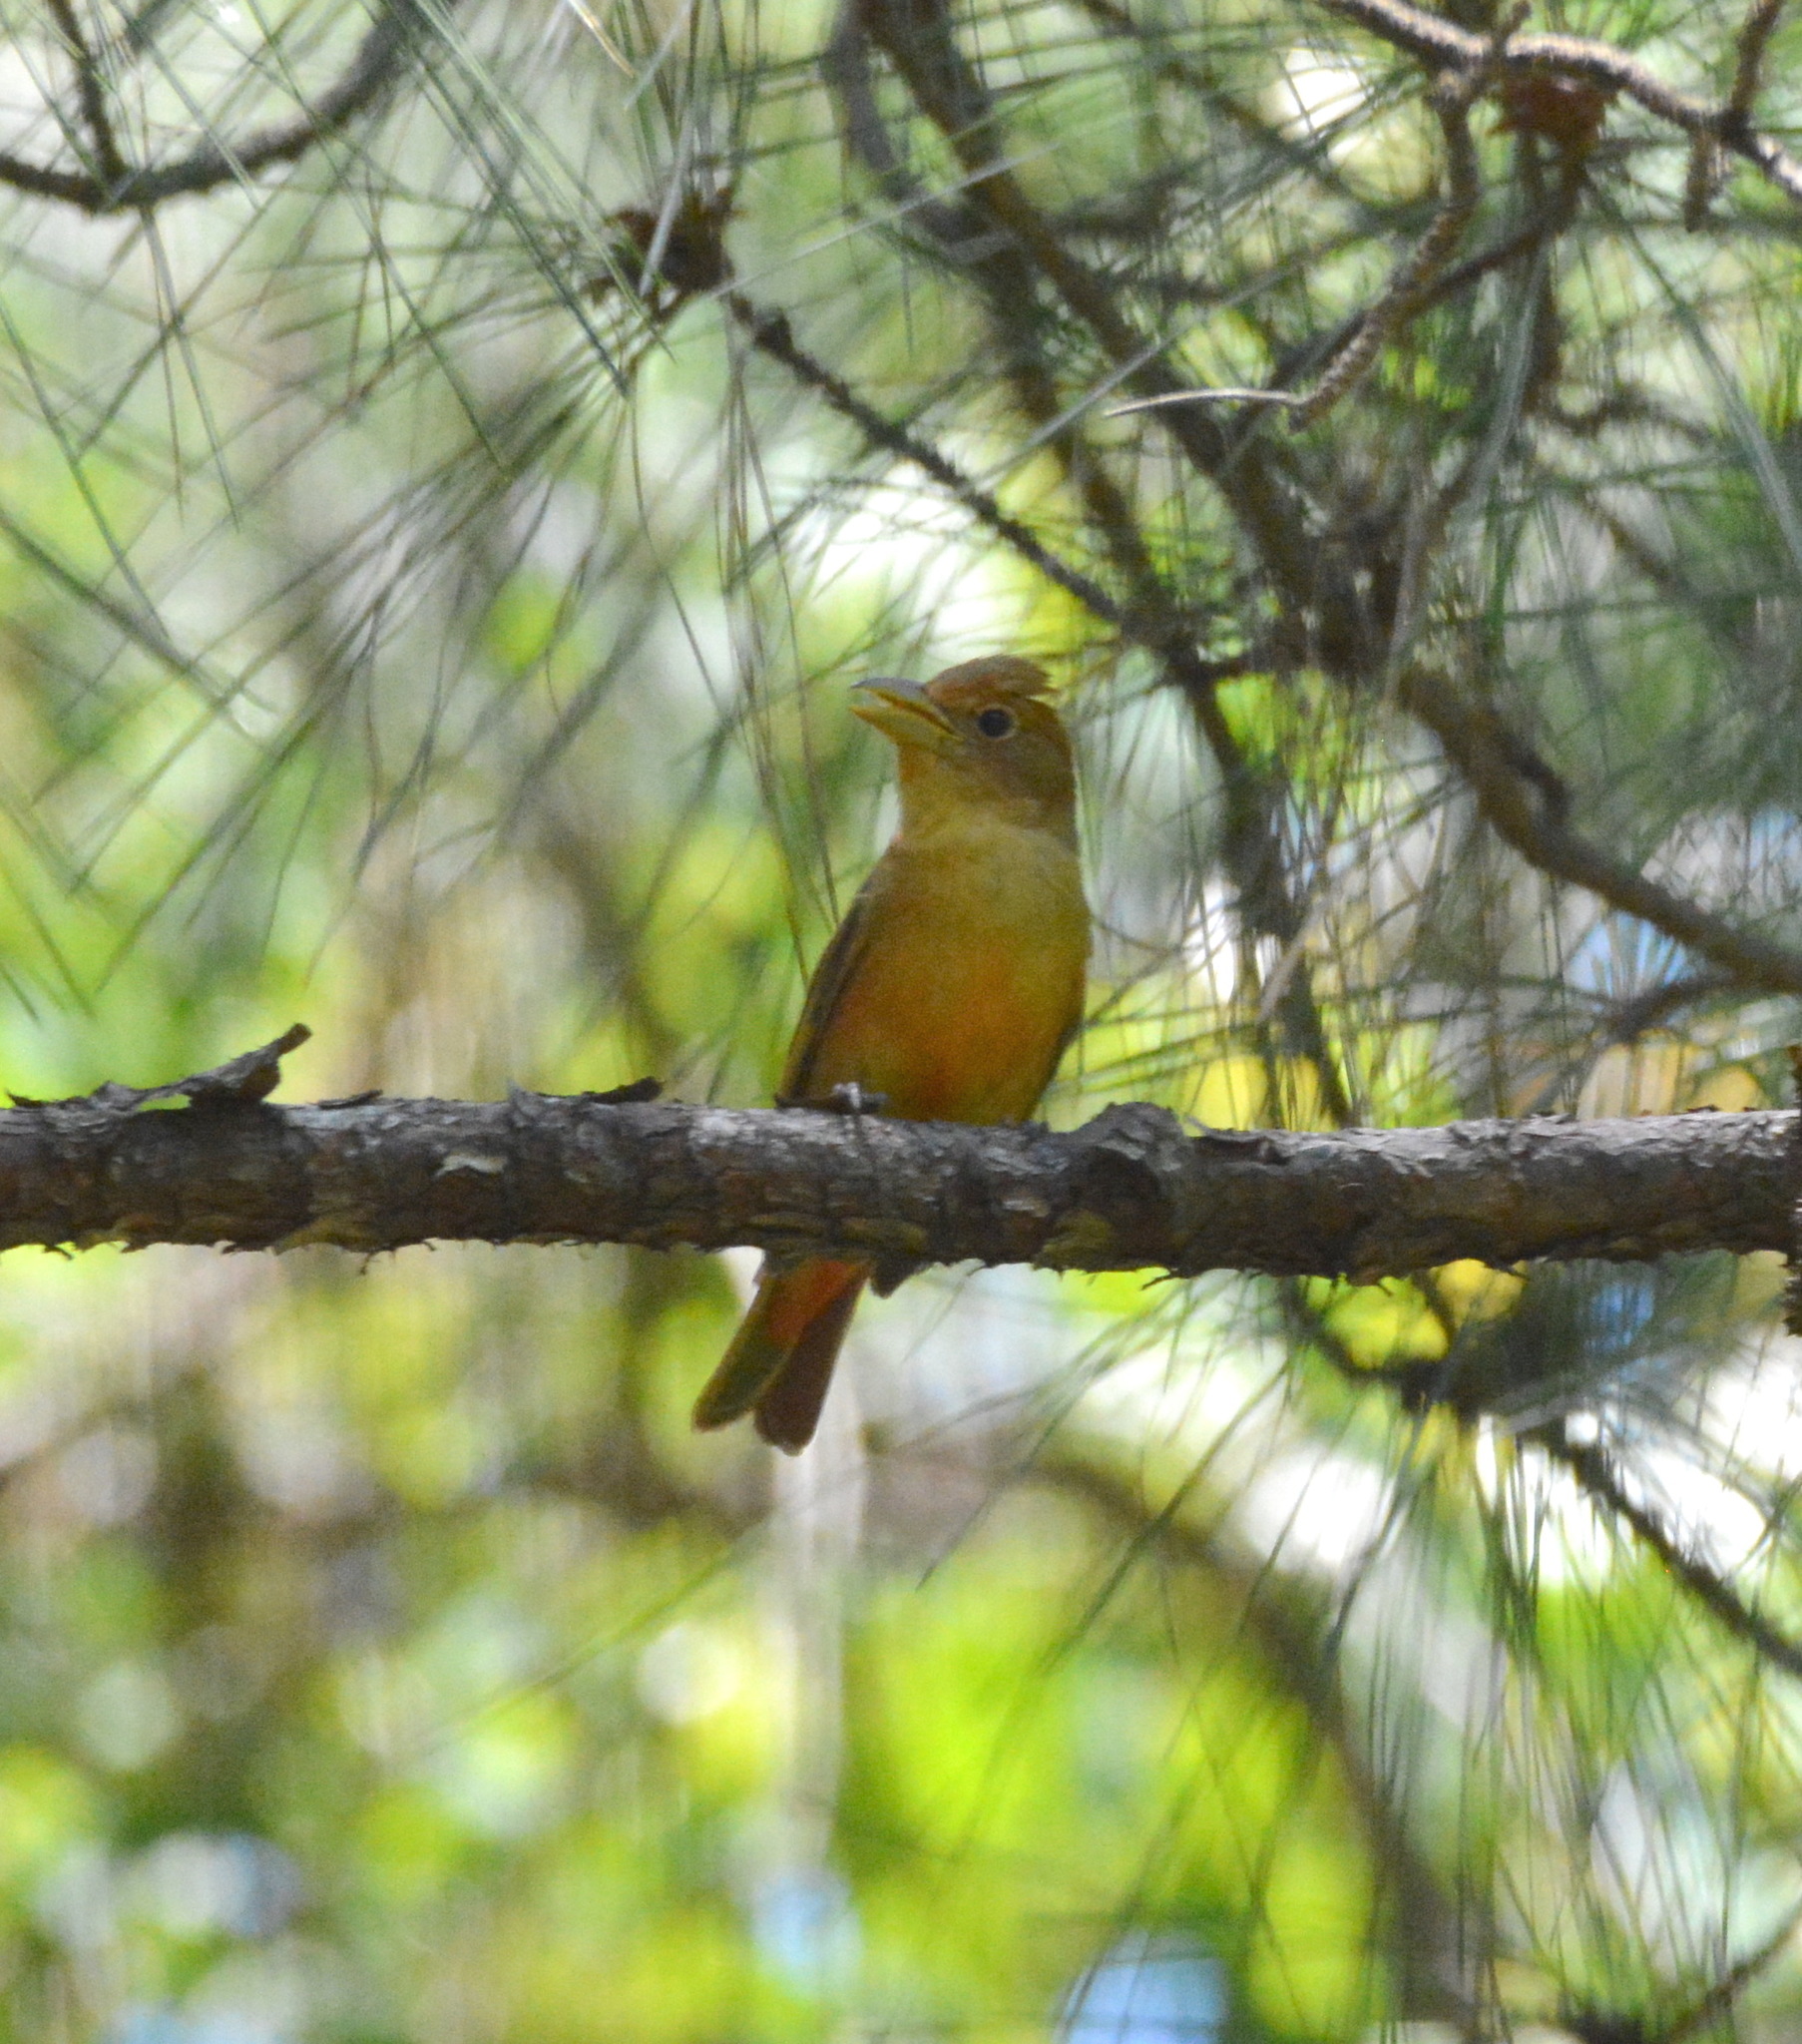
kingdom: Animalia
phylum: Chordata
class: Aves
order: Passeriformes
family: Cardinalidae
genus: Piranga
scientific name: Piranga rubra
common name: Summer tanager
